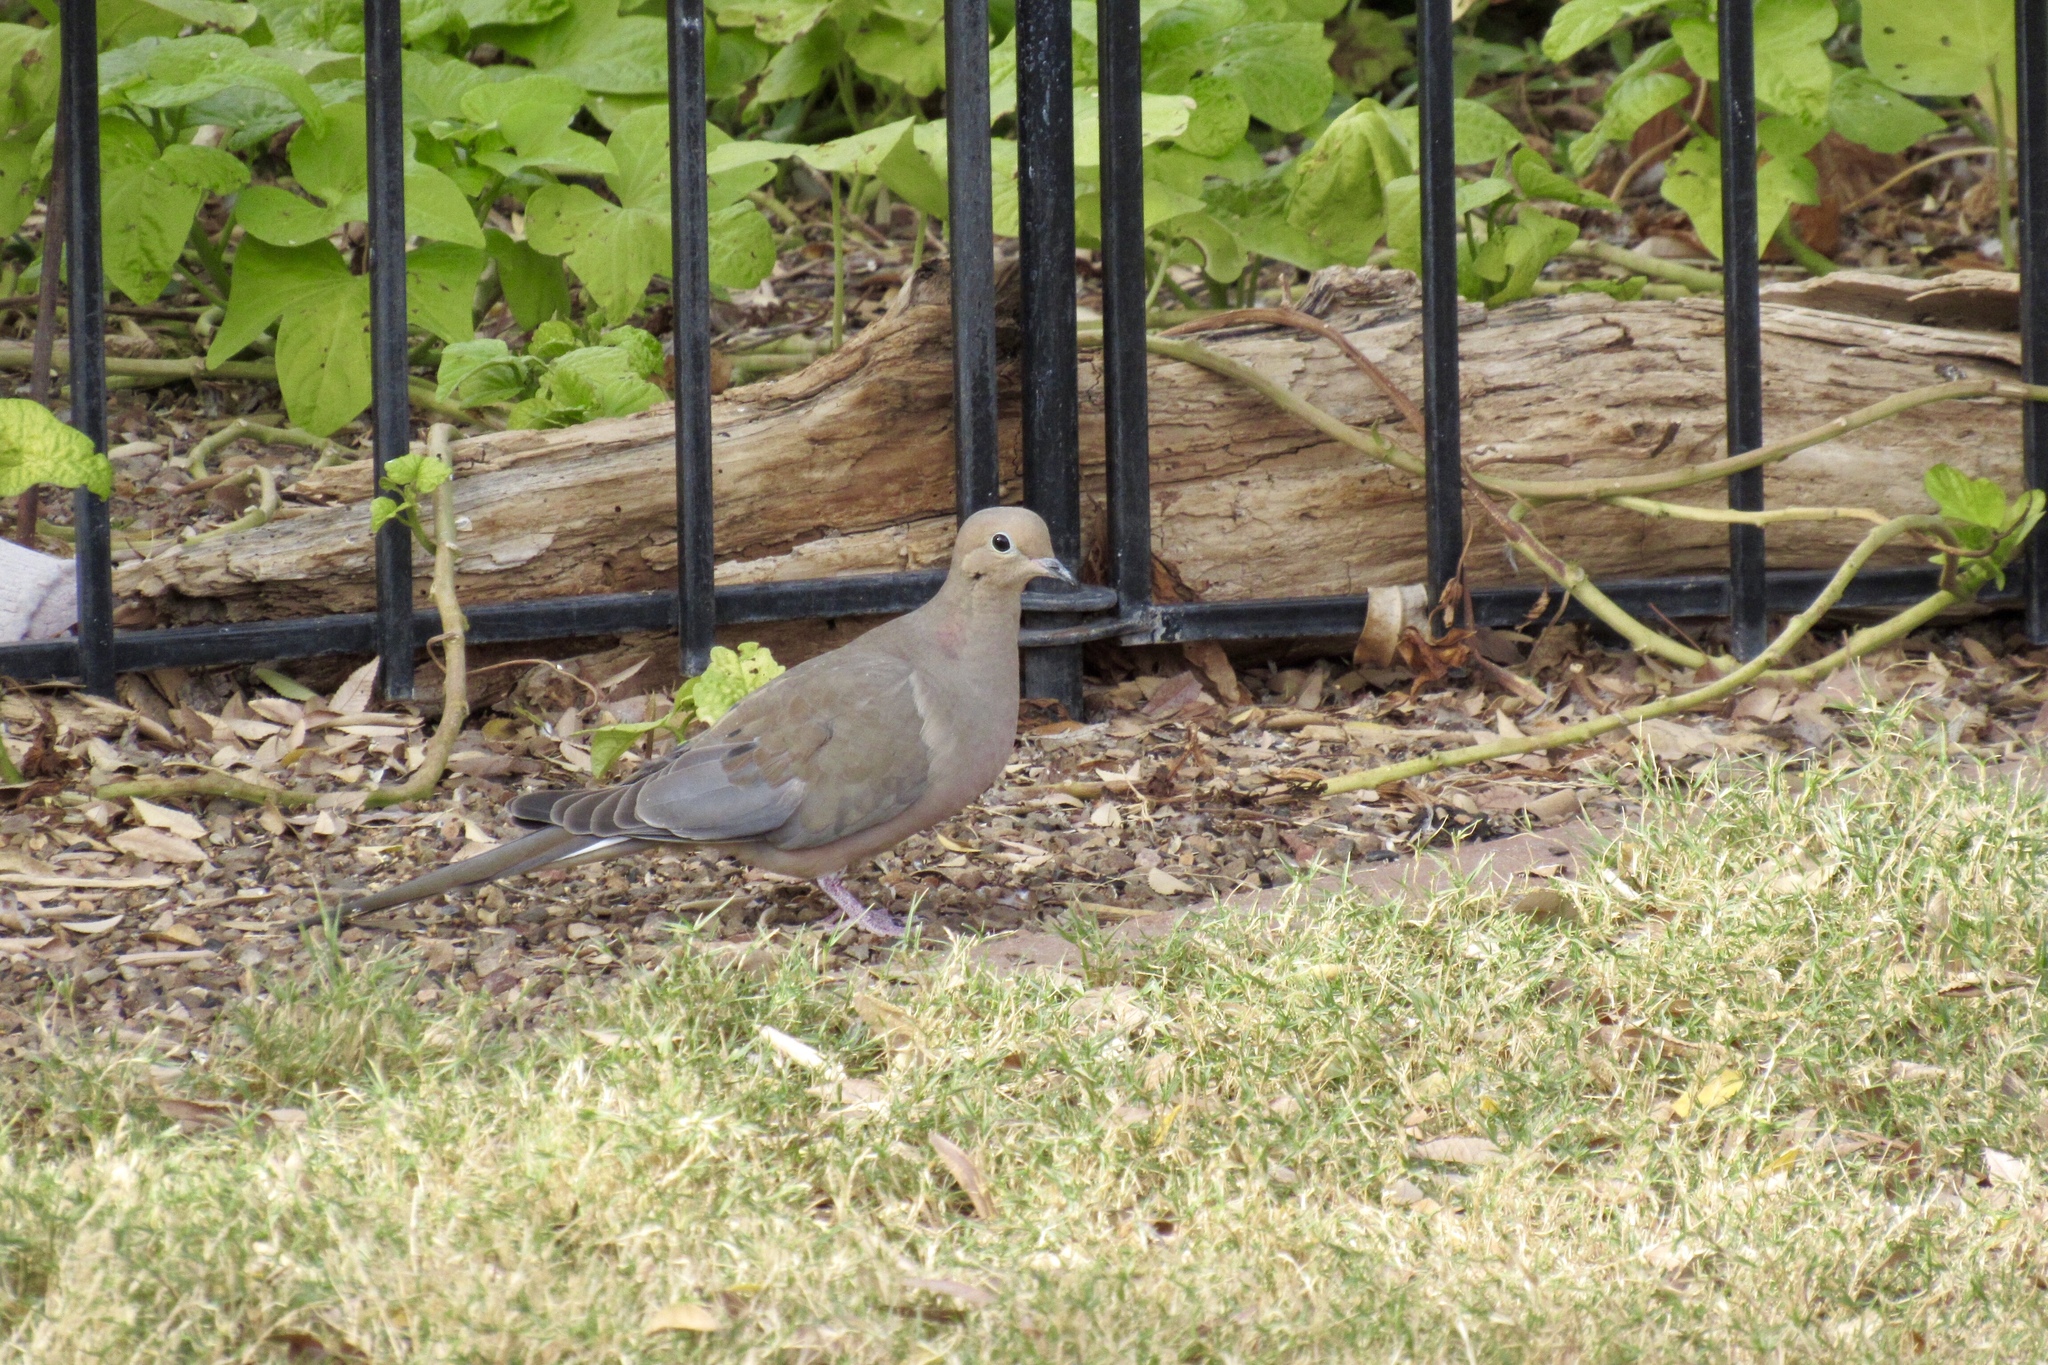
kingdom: Animalia
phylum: Chordata
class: Aves
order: Columbiformes
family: Columbidae
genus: Zenaida
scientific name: Zenaida macroura
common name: Mourning dove
